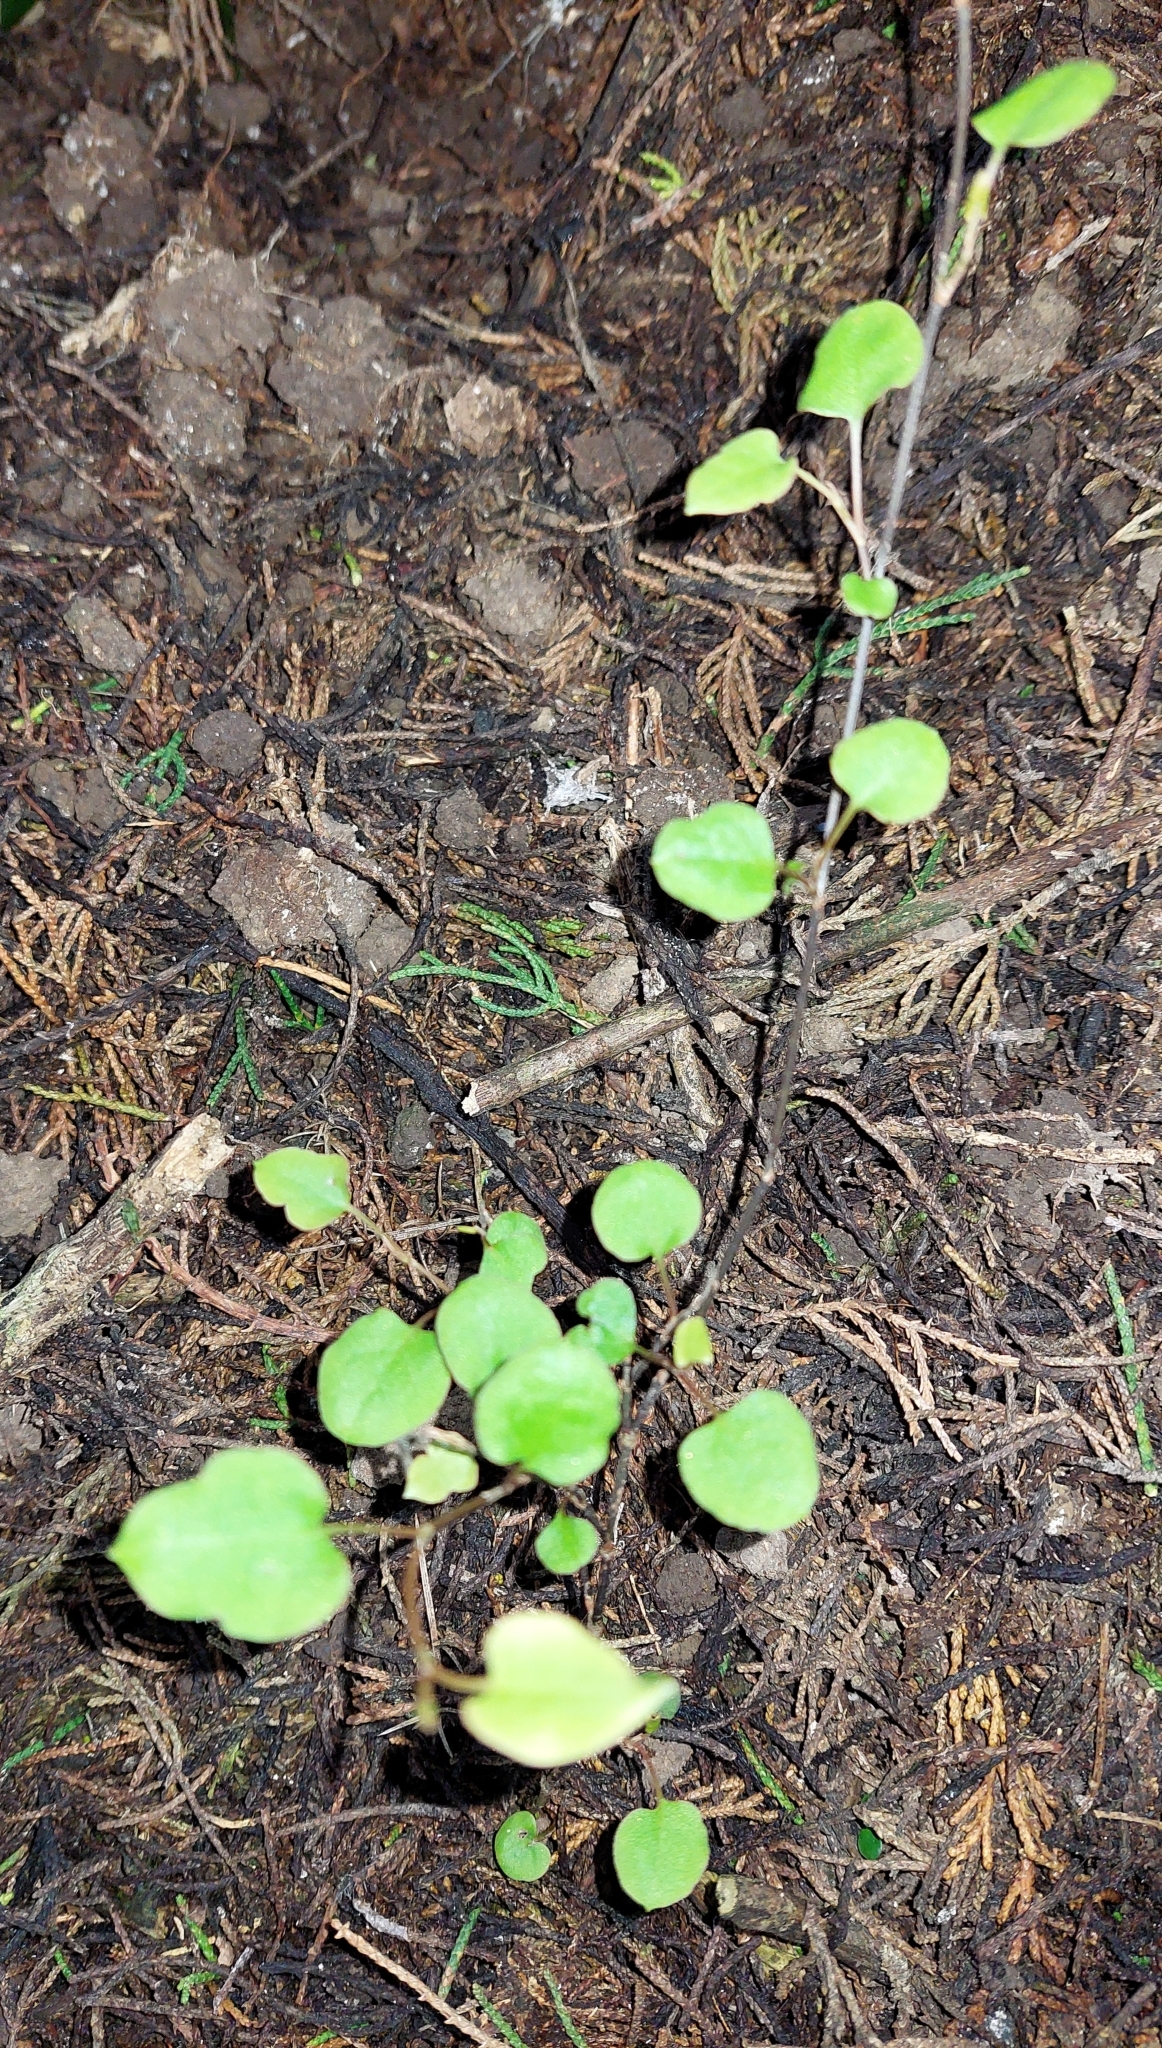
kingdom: Plantae
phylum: Tracheophyta
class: Magnoliopsida
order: Caryophyllales
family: Polygonaceae
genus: Muehlenbeckia
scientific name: Muehlenbeckia australis
